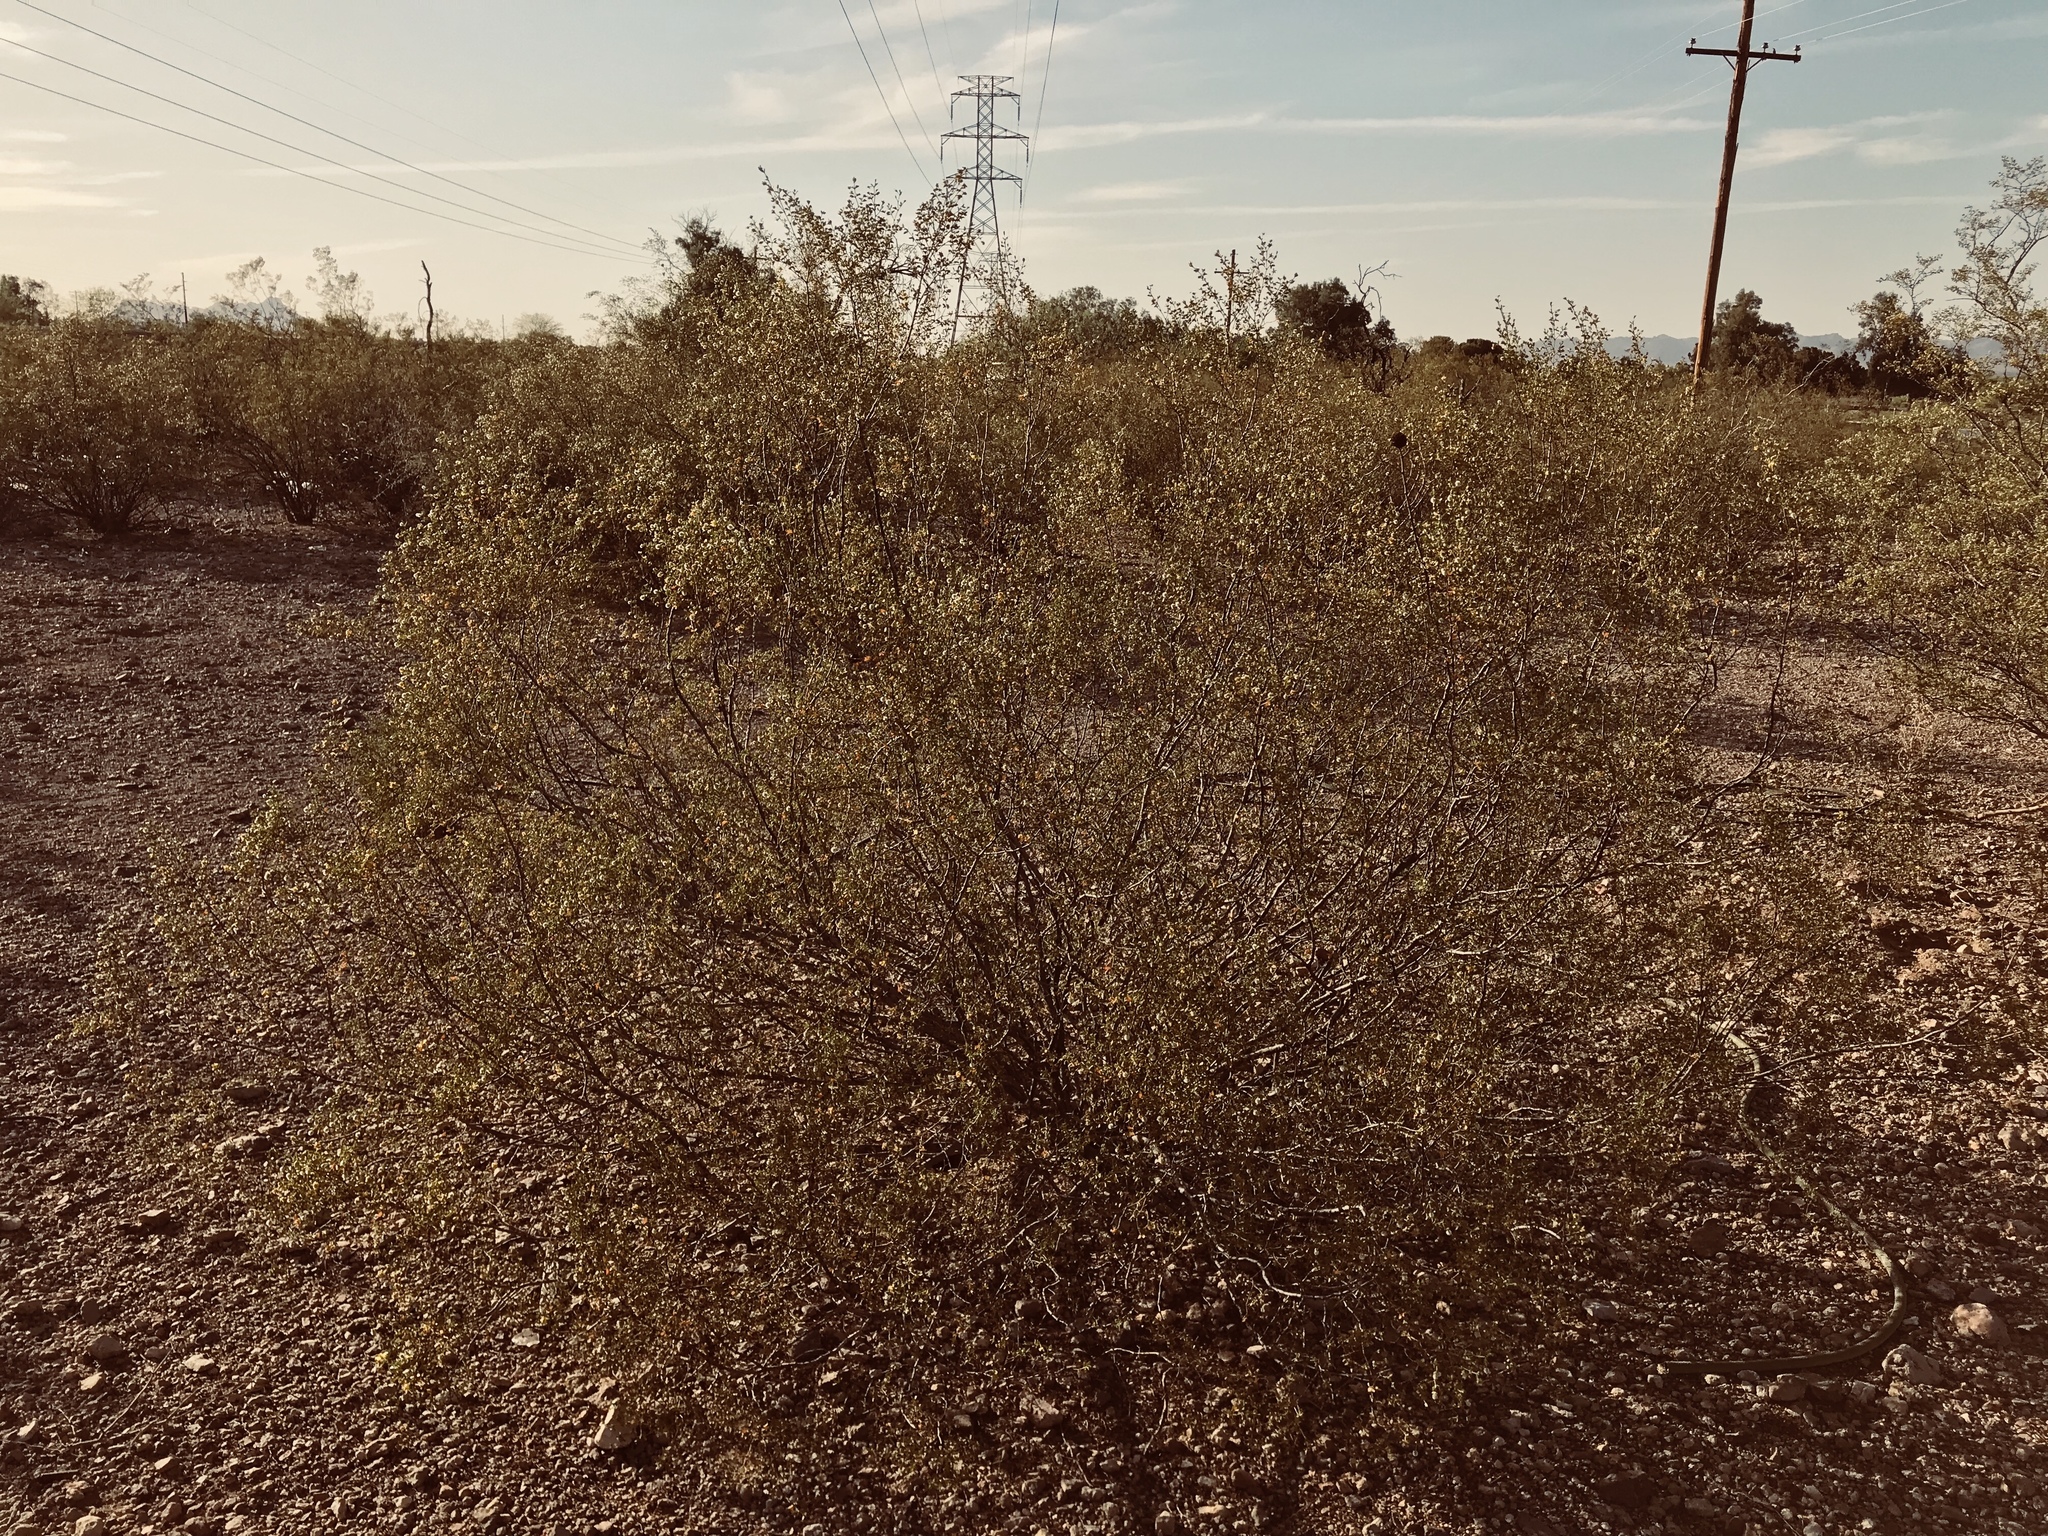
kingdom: Plantae
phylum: Tracheophyta
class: Magnoliopsida
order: Zygophyllales
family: Zygophyllaceae
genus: Larrea
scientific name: Larrea tridentata
